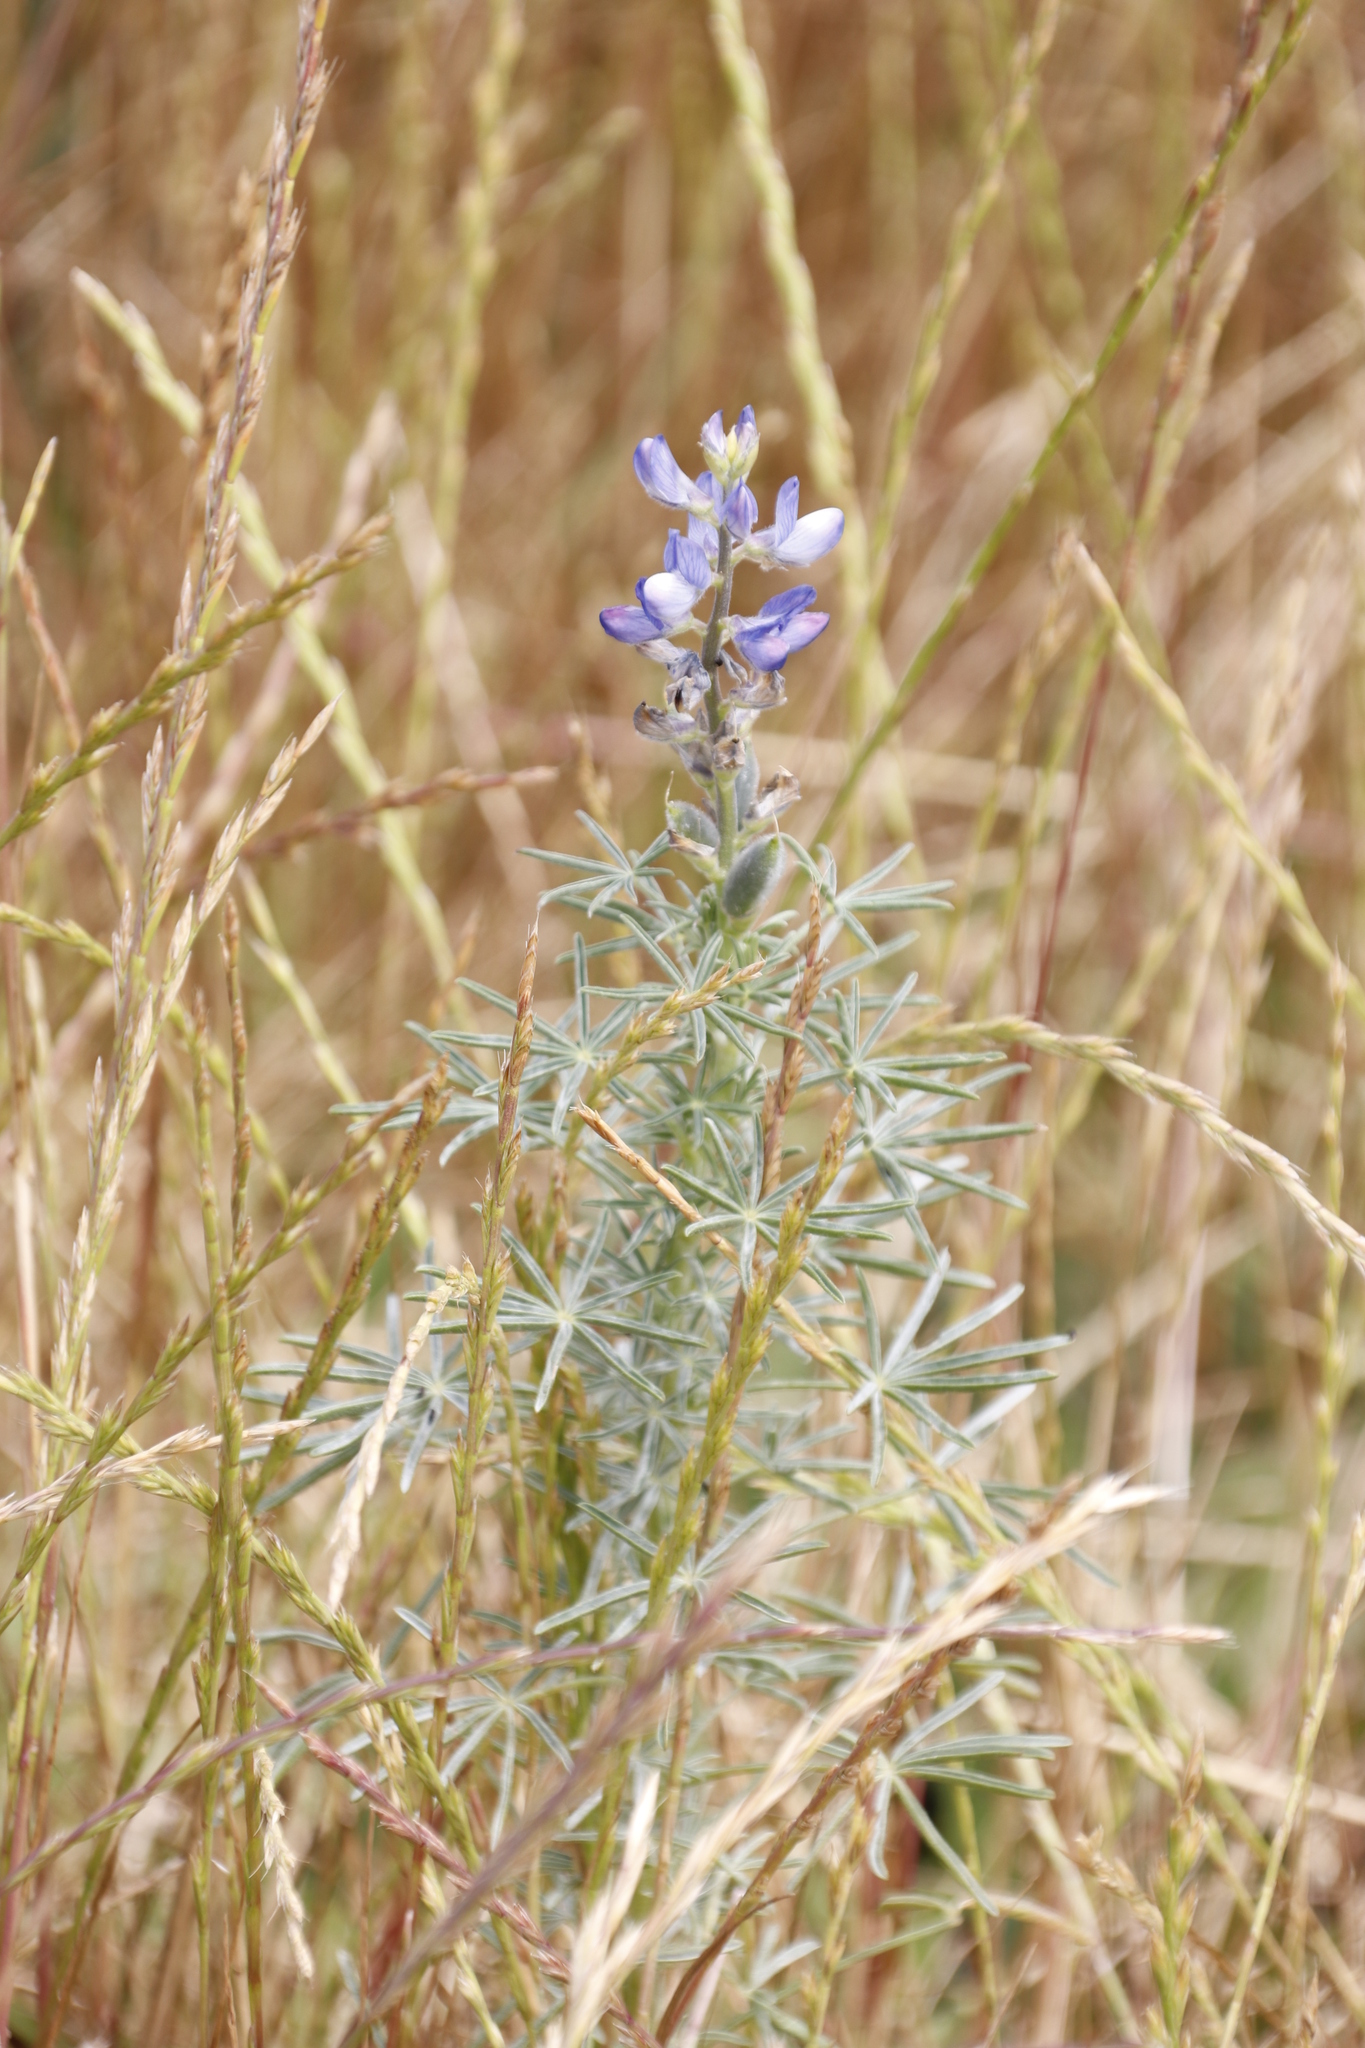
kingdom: Plantae
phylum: Tracheophyta
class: Magnoliopsida
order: Fabales
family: Fabaceae
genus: Lupinus
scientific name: Lupinus angustifolius
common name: Narrow-leaved lupin
